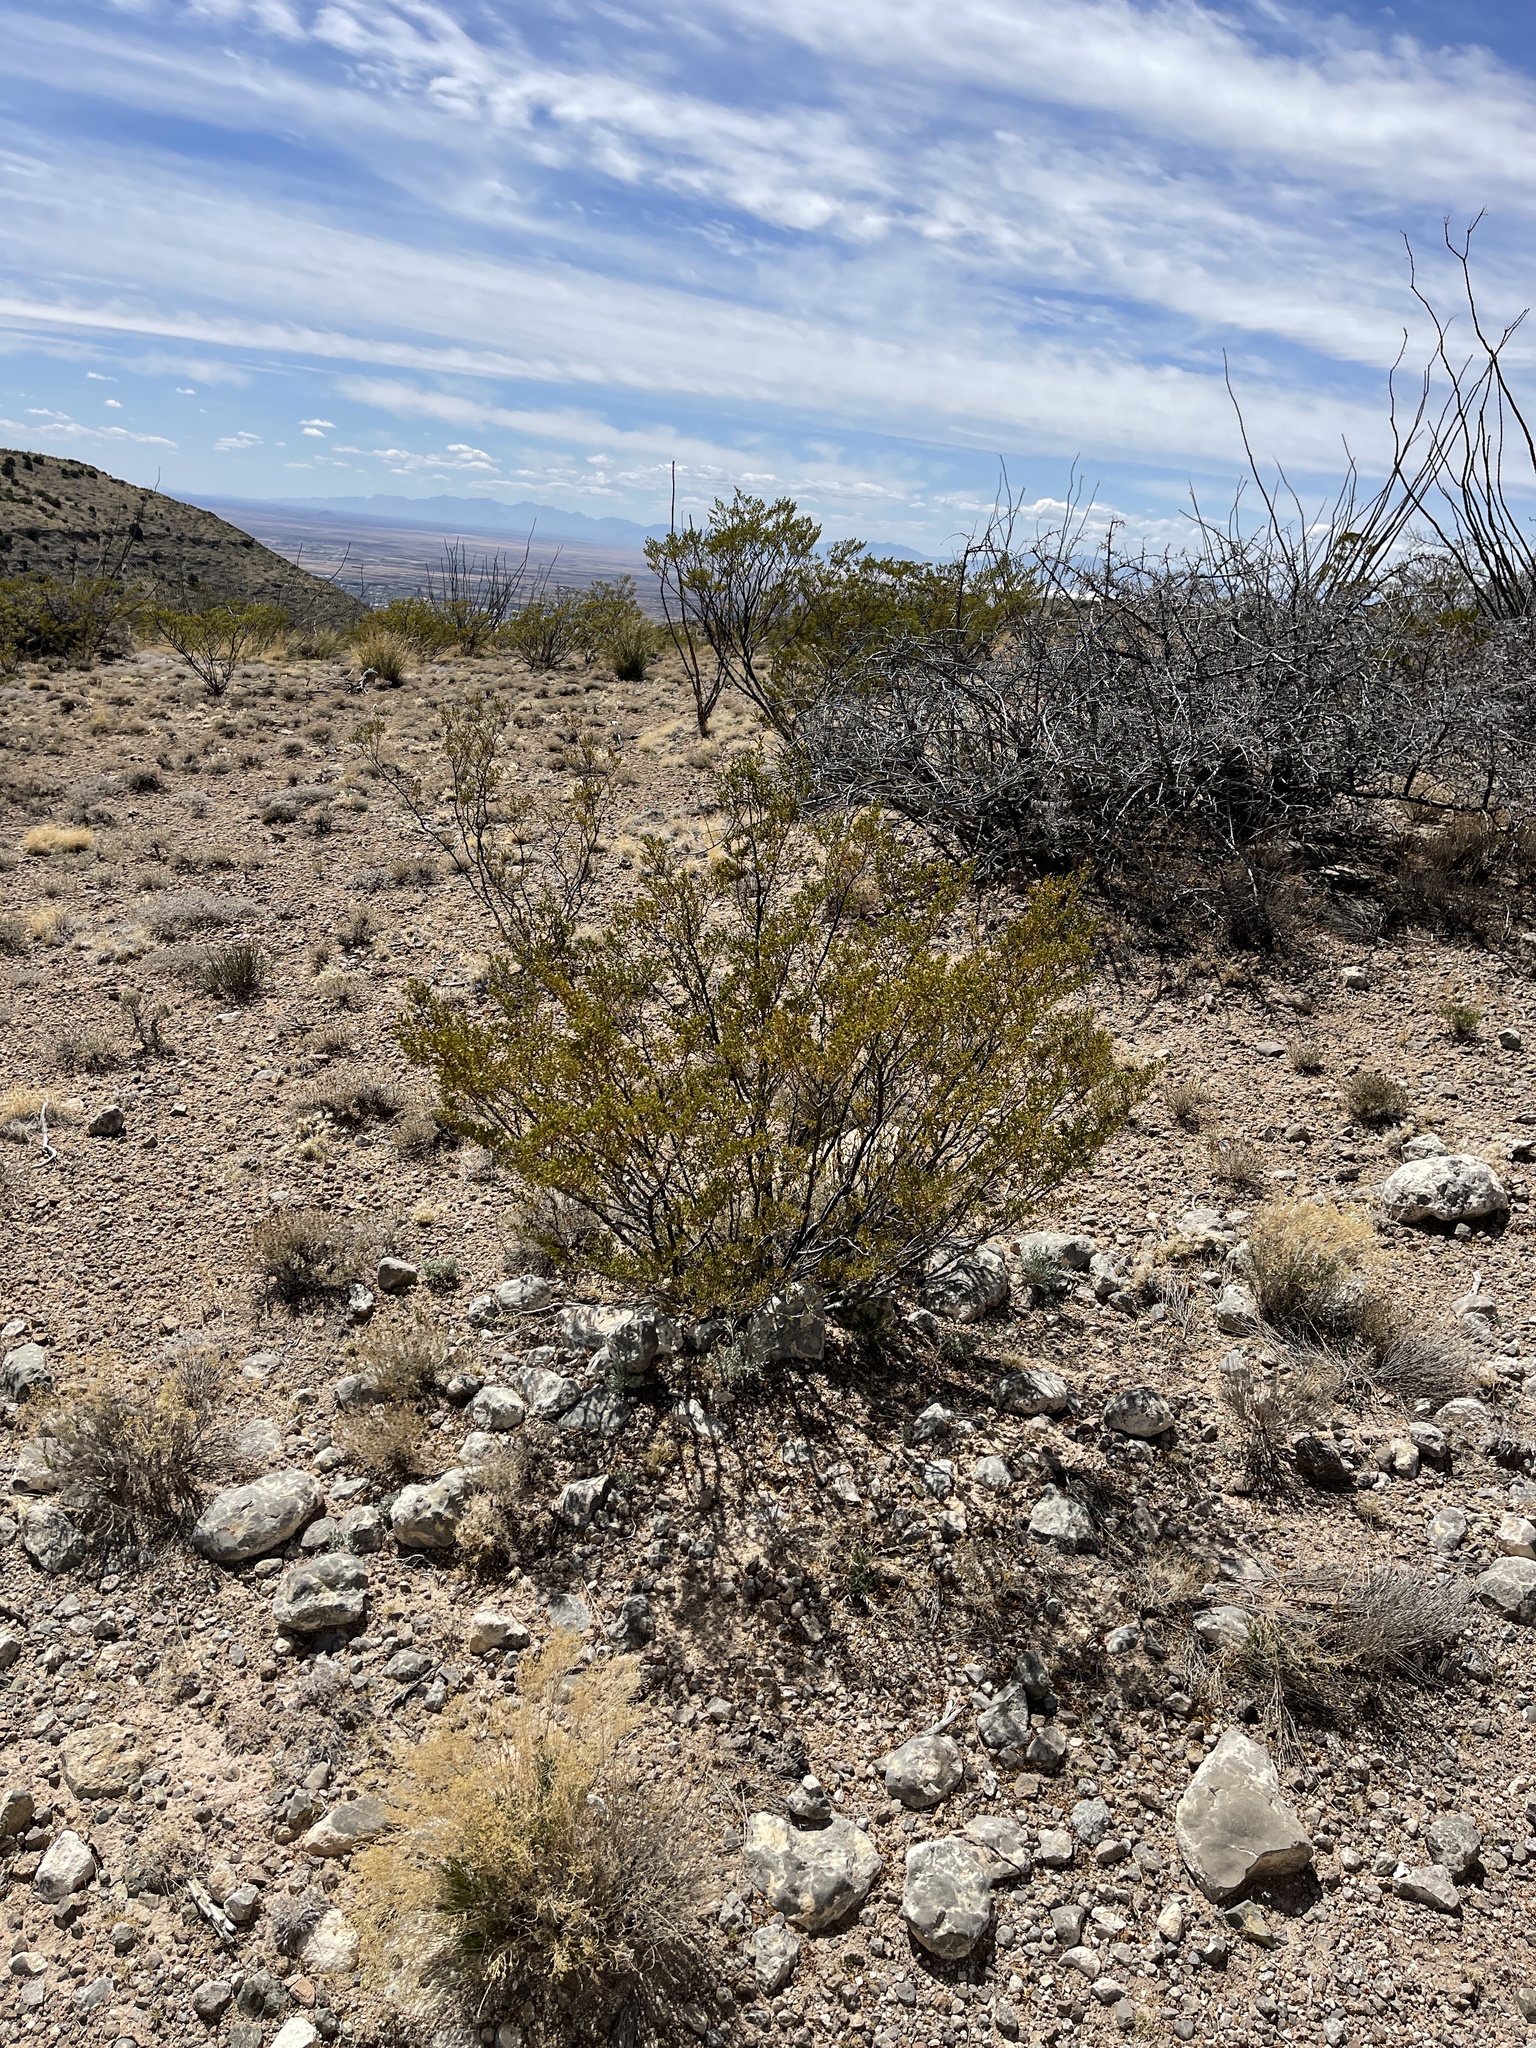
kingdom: Plantae
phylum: Tracheophyta
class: Magnoliopsida
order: Zygophyllales
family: Zygophyllaceae
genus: Larrea
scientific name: Larrea tridentata
